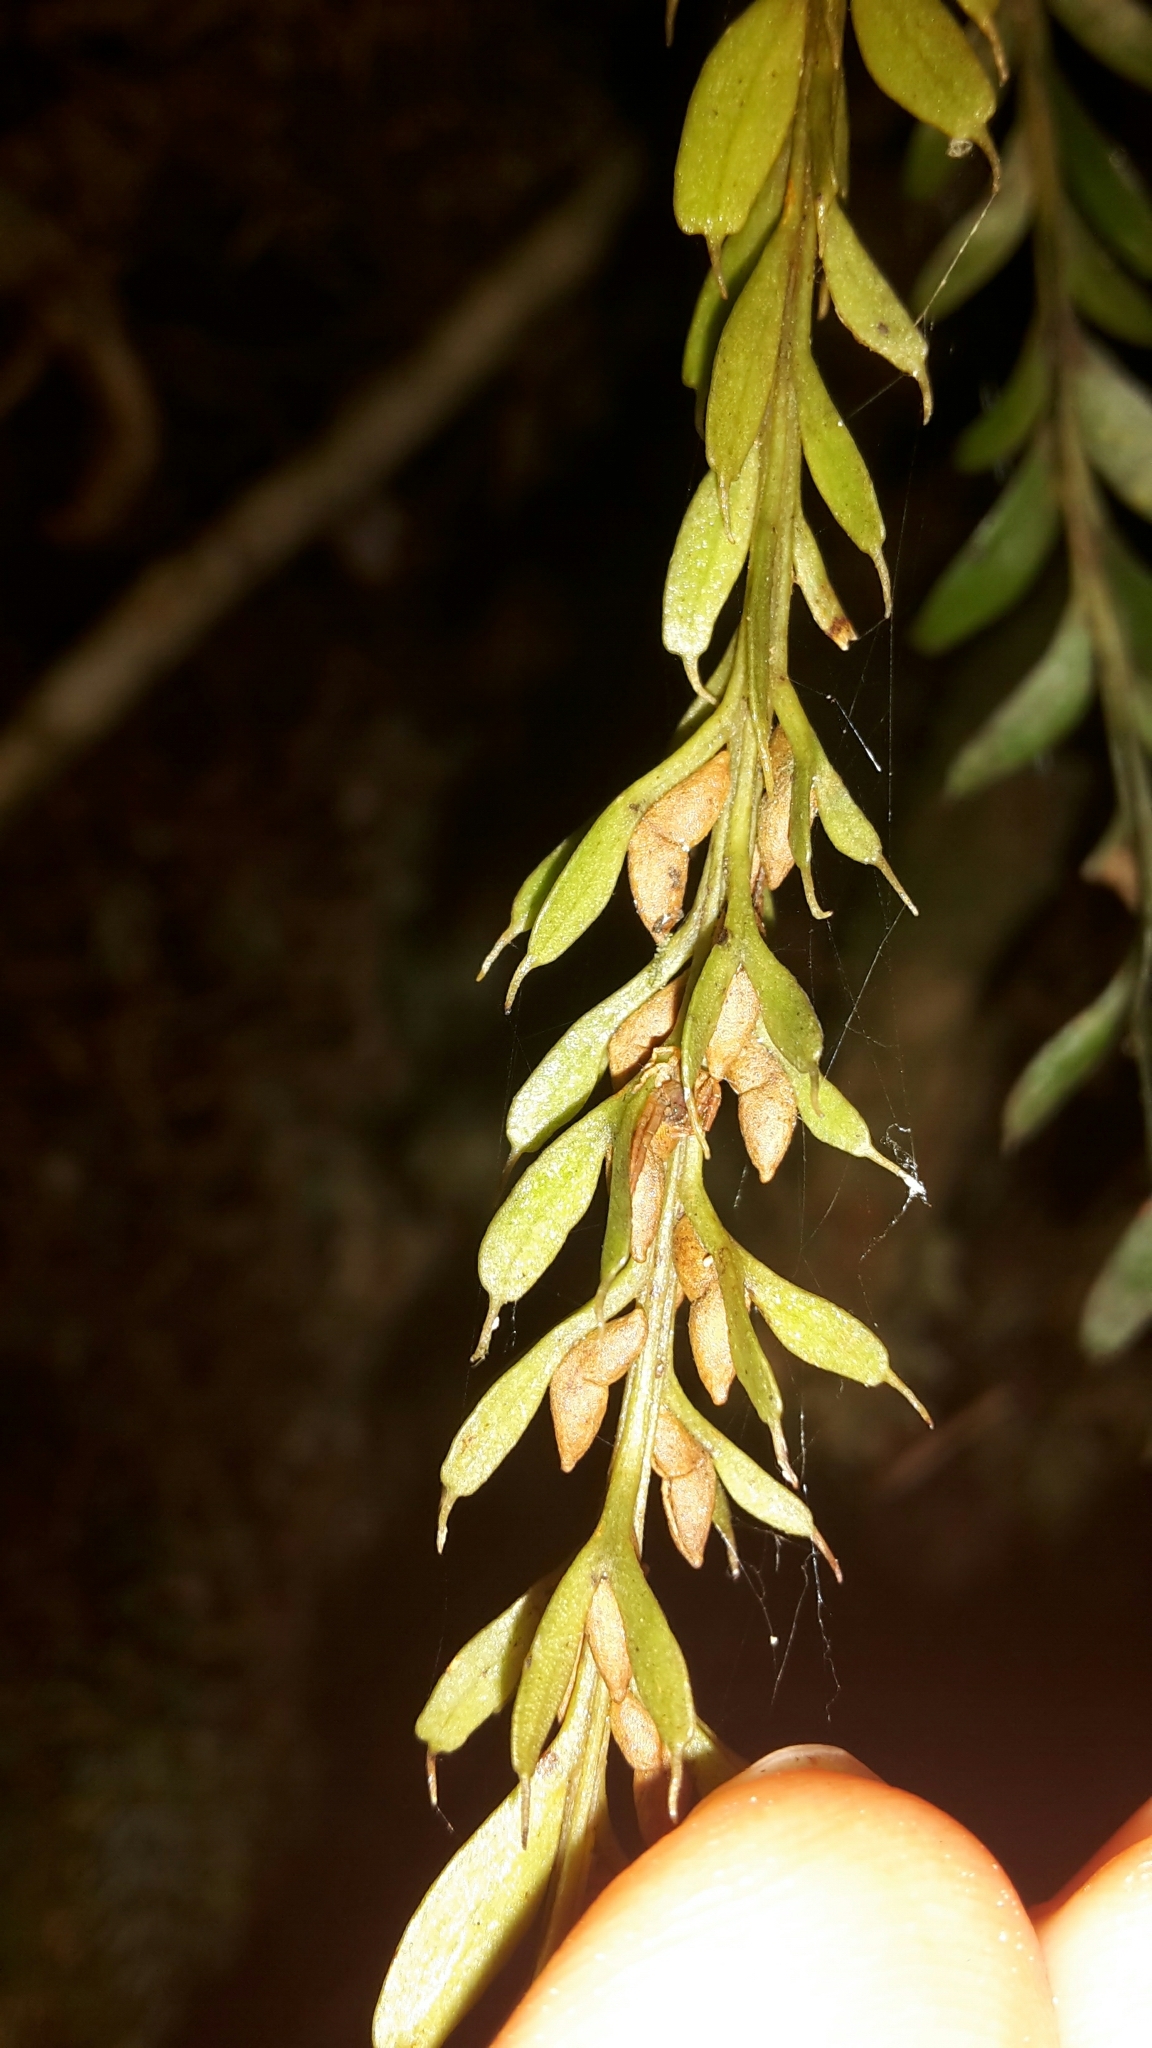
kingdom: Plantae
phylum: Tracheophyta
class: Polypodiopsida
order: Psilotales
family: Psilotaceae
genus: Tmesipteris
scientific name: Tmesipteris tannensis
